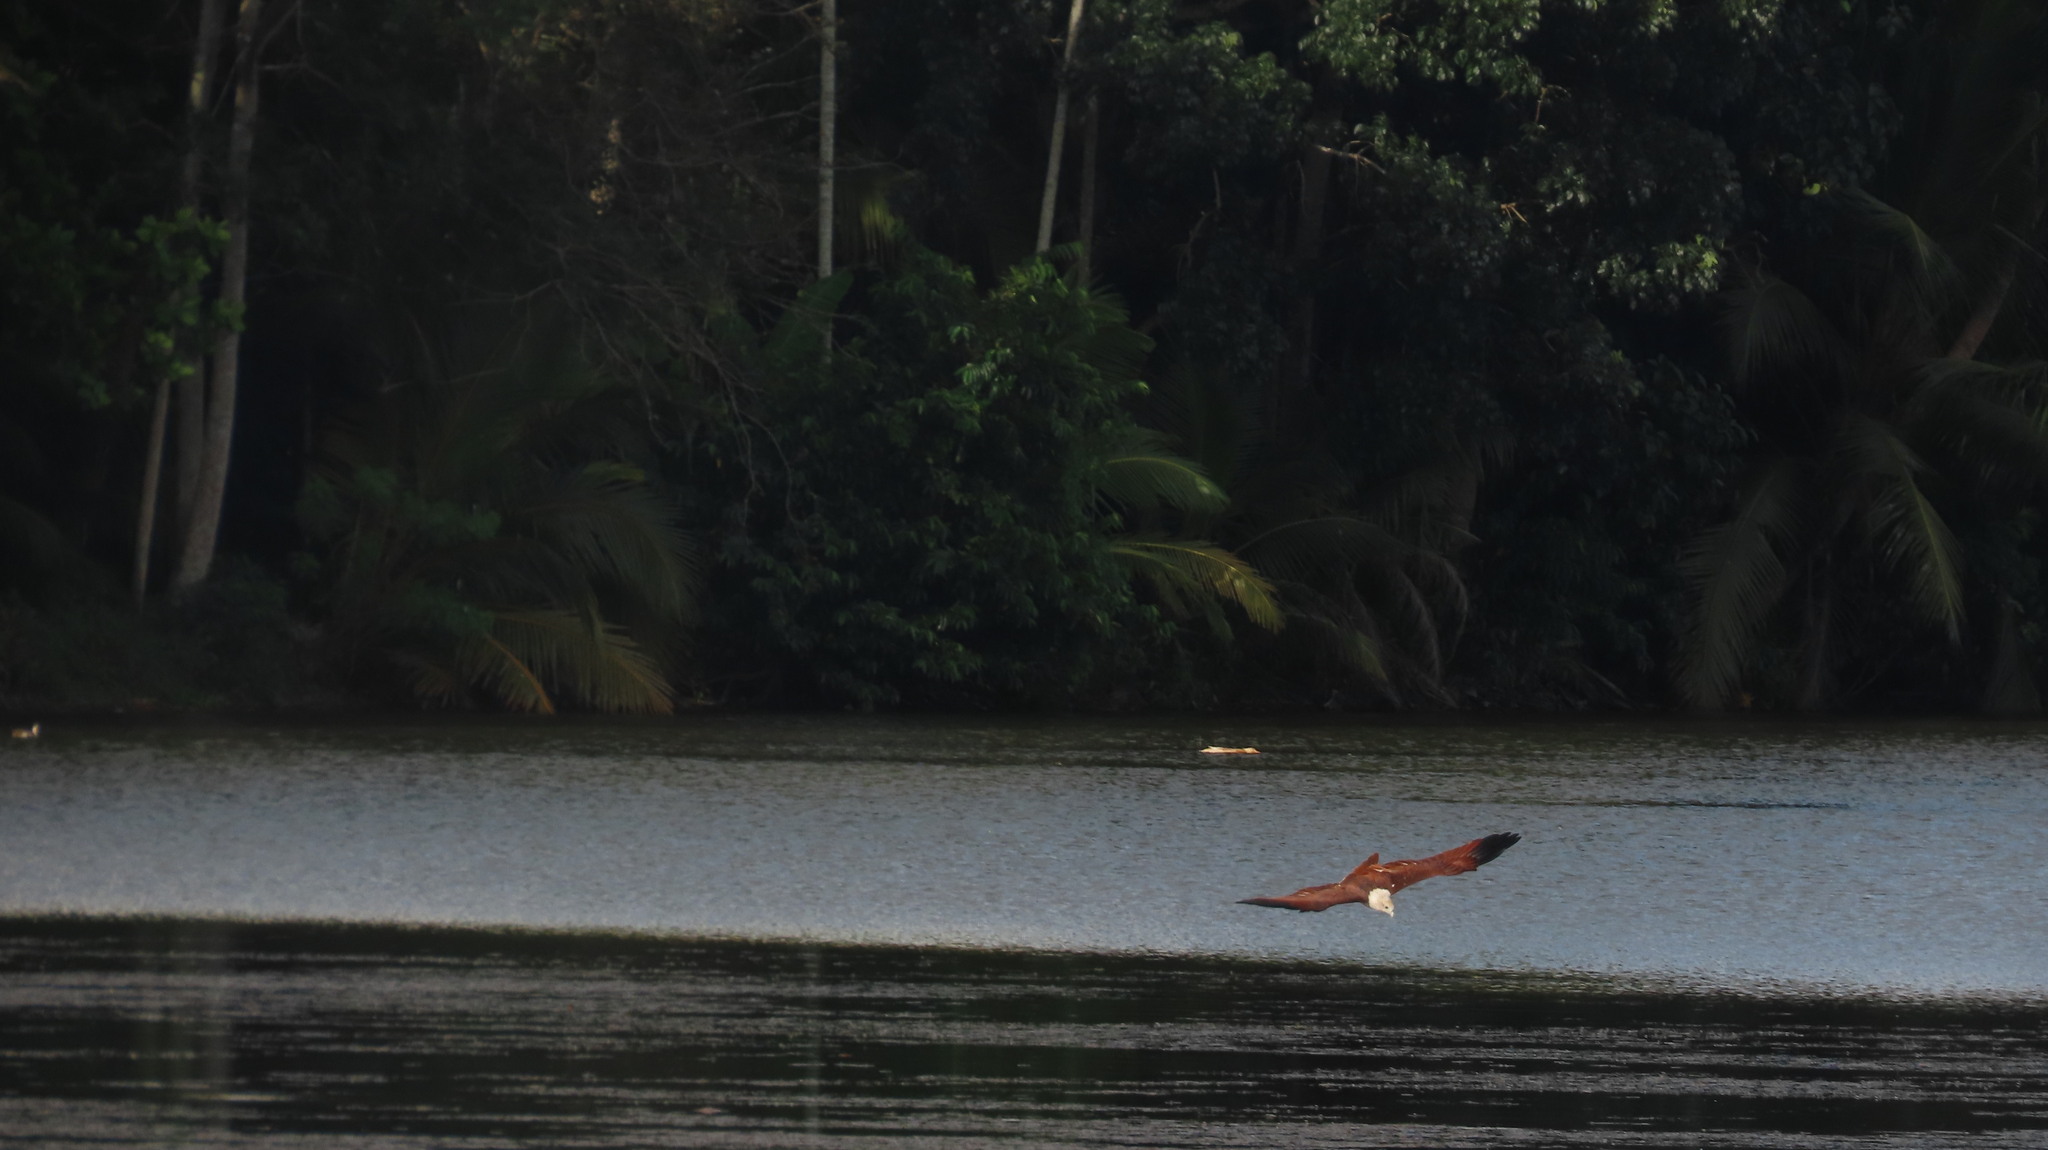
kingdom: Animalia
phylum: Chordata
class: Aves
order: Accipitriformes
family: Accipitridae
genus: Haliastur
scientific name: Haliastur indus
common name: Brahminy kite
